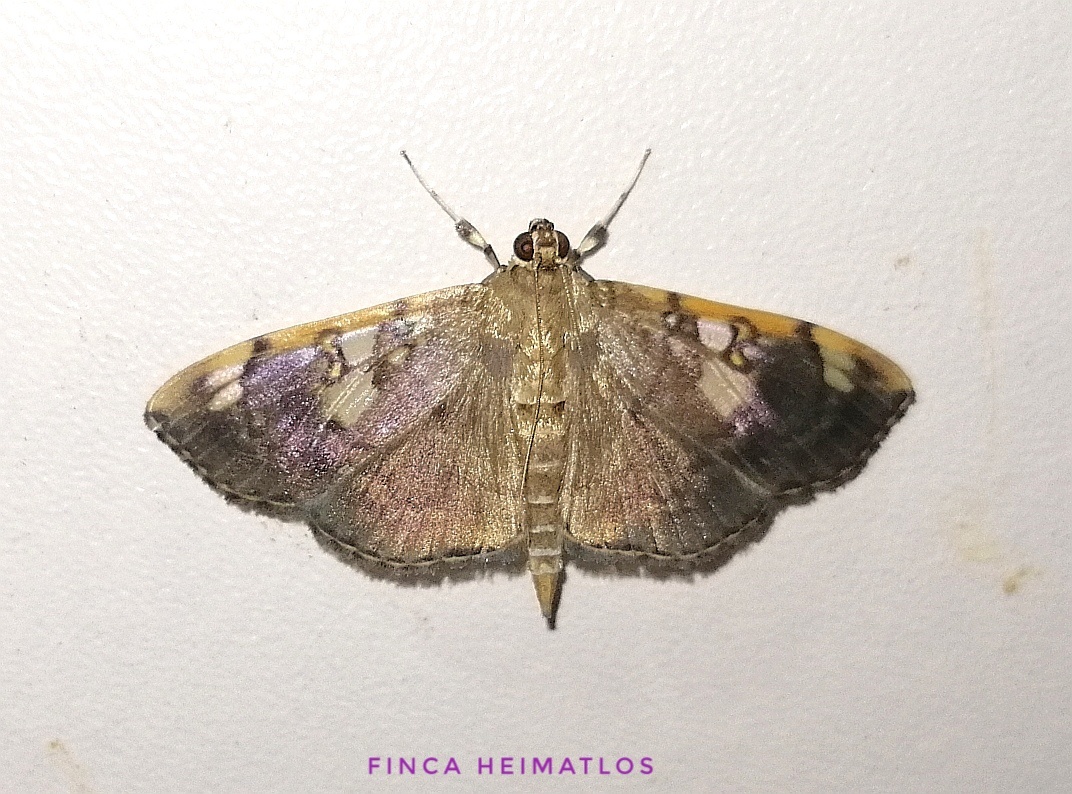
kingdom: Animalia
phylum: Arthropoda
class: Insecta
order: Lepidoptera
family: Crambidae
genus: Pantographa
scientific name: Pantographa
